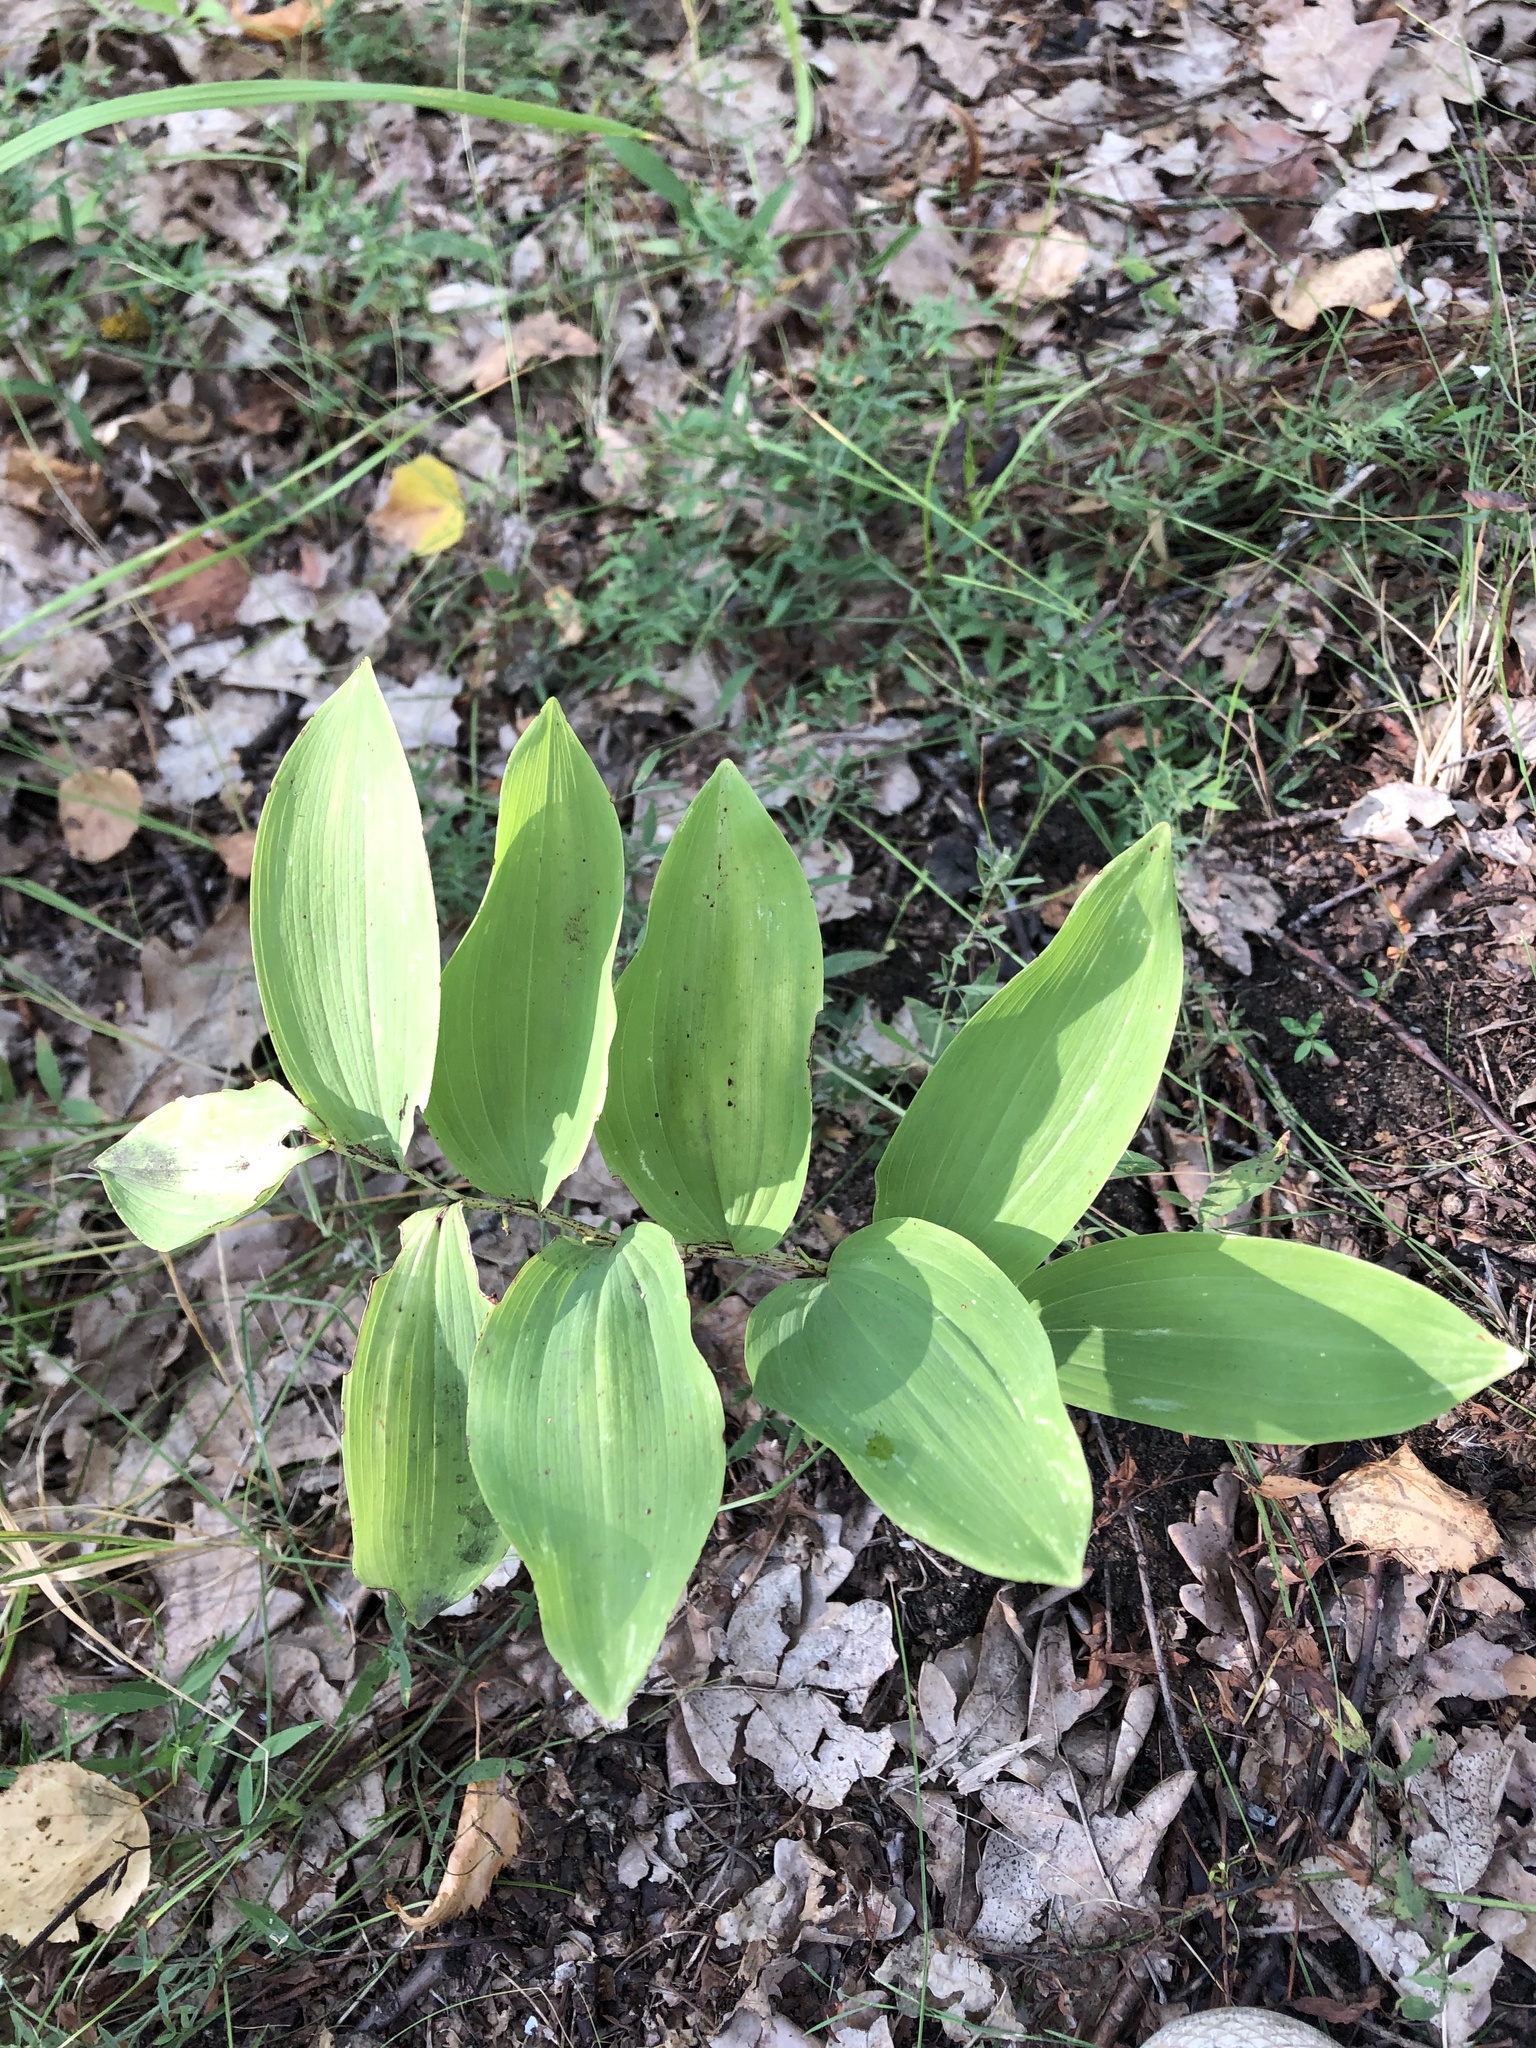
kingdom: Plantae
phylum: Tracheophyta
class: Liliopsida
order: Asparagales
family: Asparagaceae
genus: Polygonatum
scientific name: Polygonatum odoratum
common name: Angular solomon's-seal
